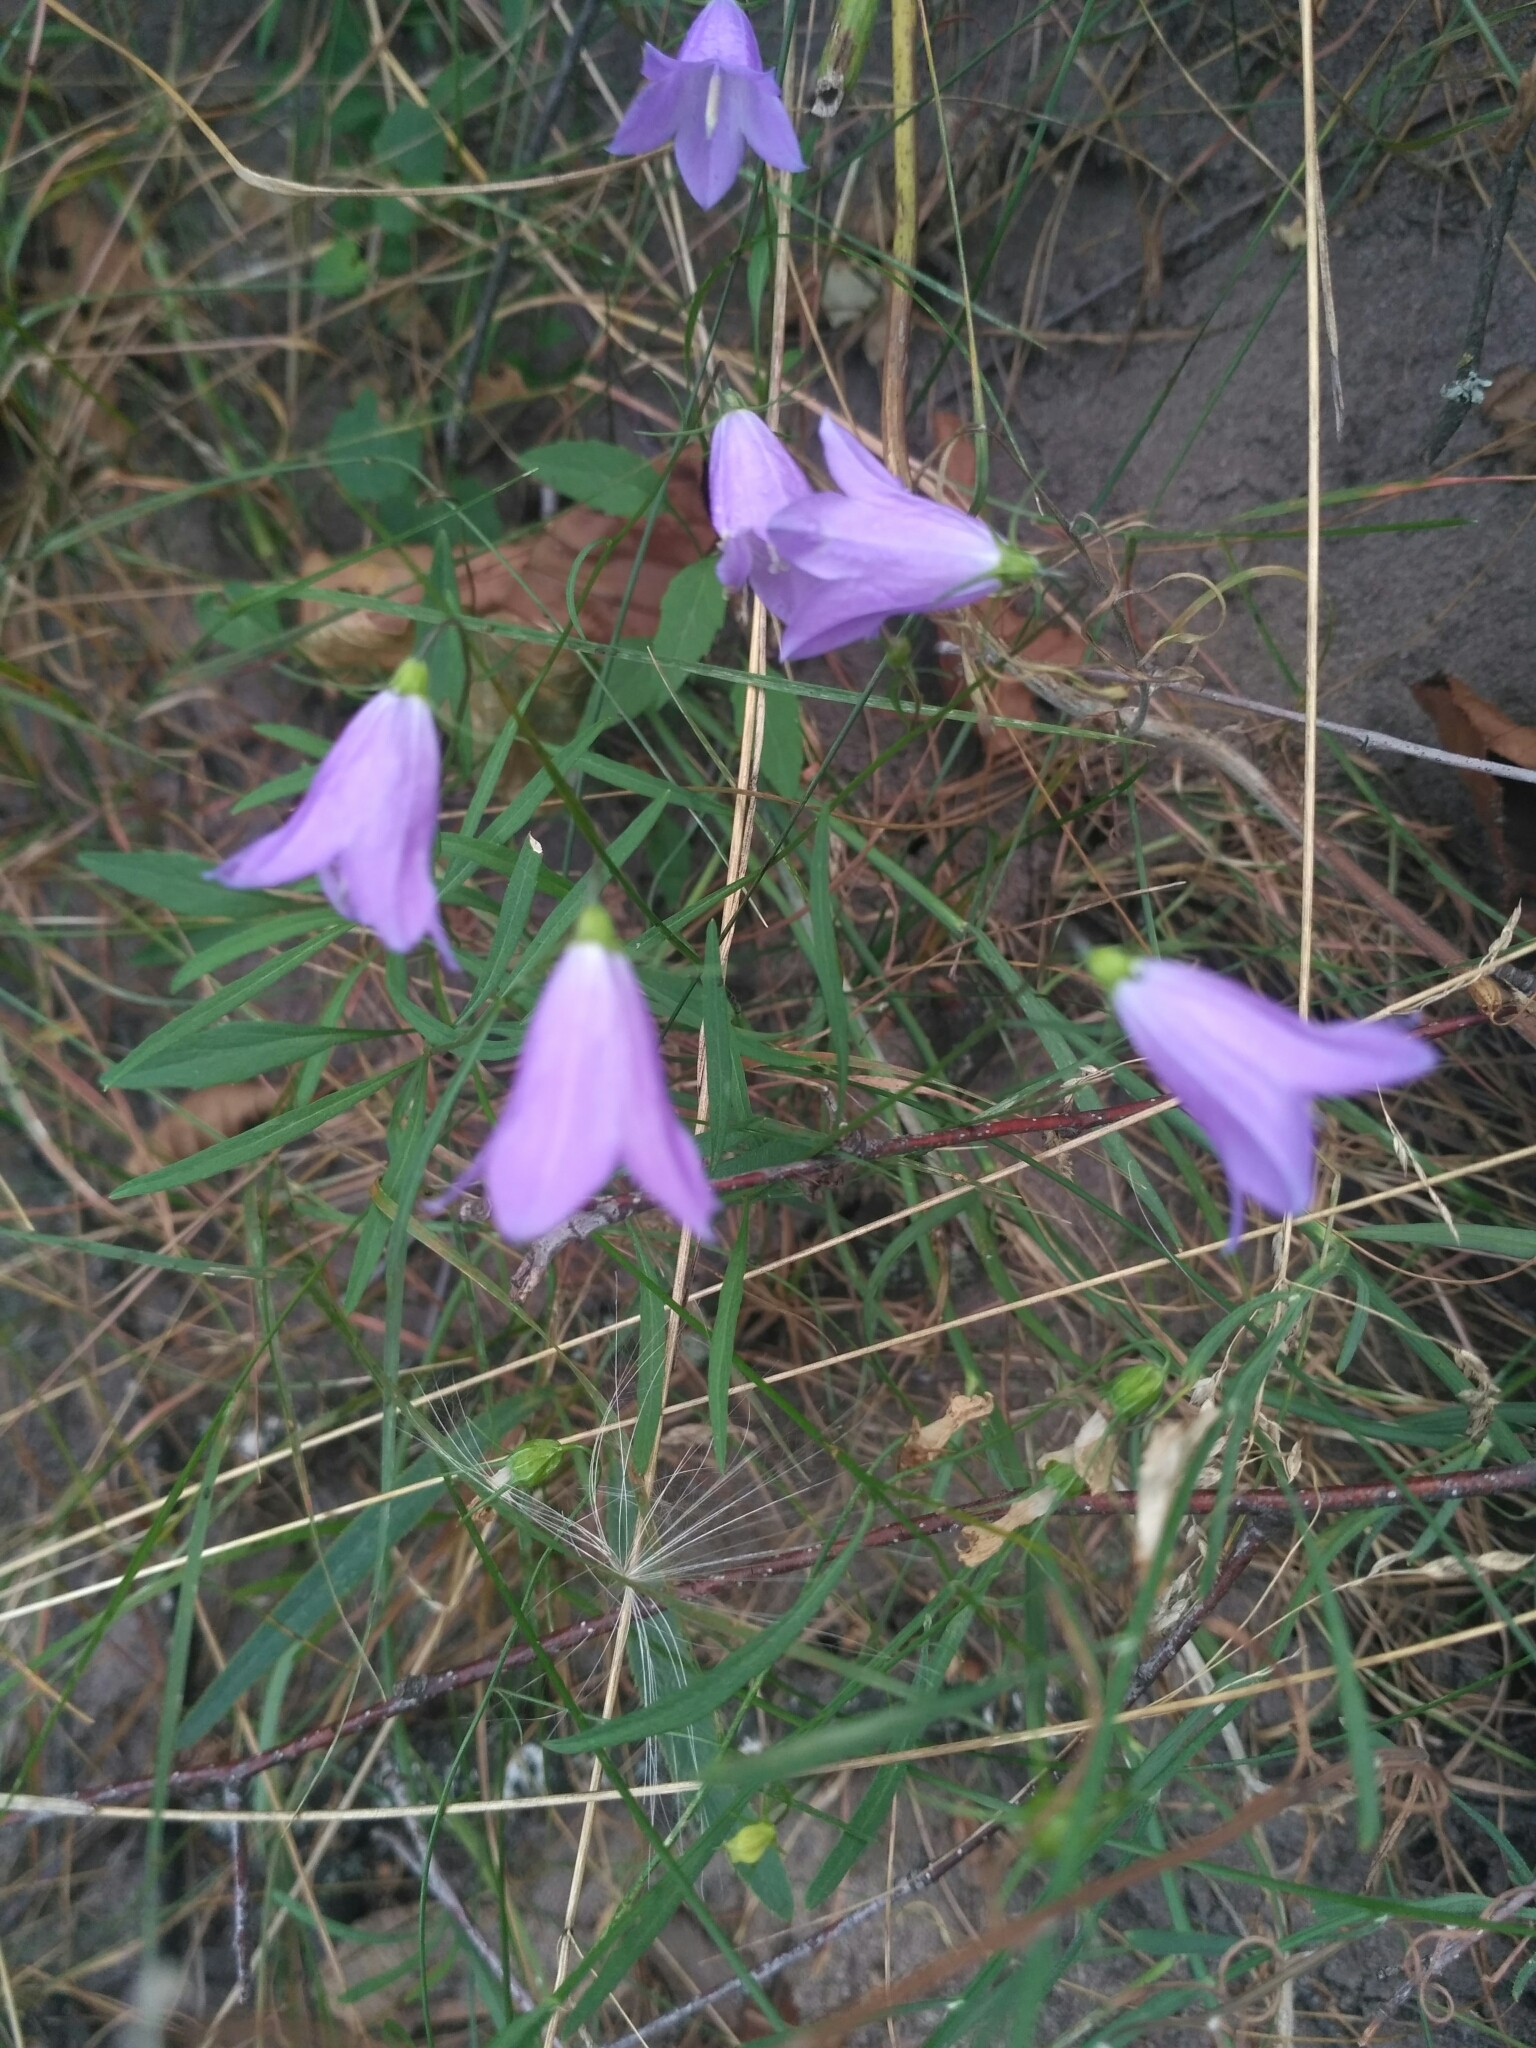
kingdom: Plantae
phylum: Tracheophyta
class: Magnoliopsida
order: Asterales
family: Campanulaceae
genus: Campanula
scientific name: Campanula rotundifolia
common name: Harebell
